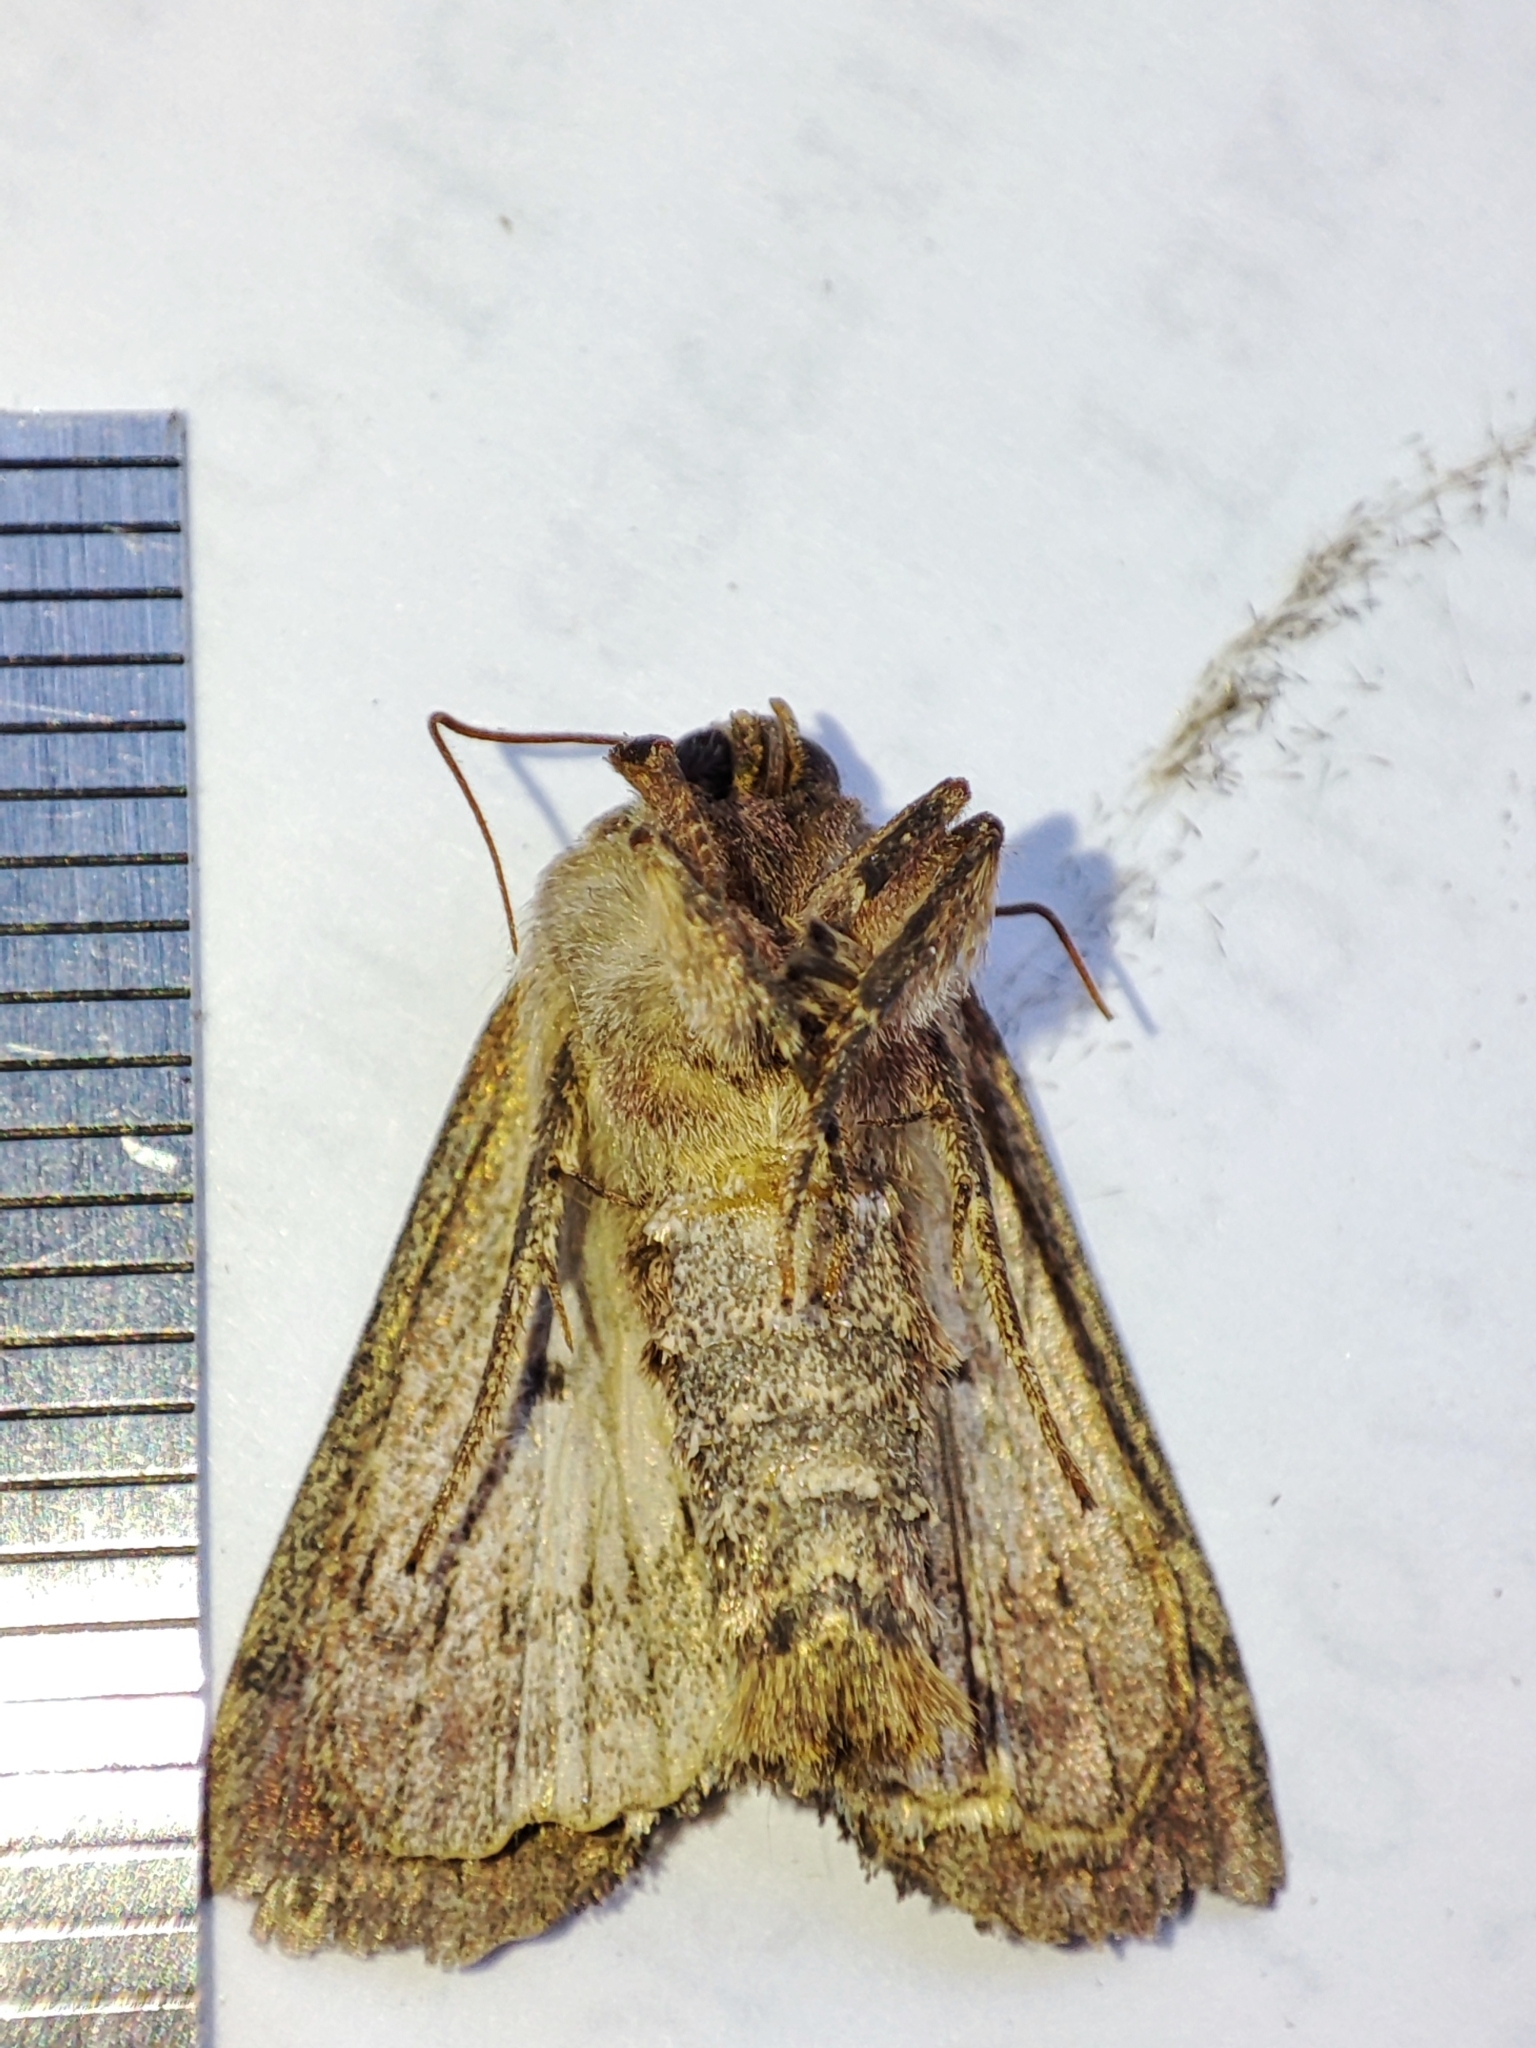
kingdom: Animalia
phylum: Arthropoda
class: Insecta
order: Lepidoptera
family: Noctuidae
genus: Lacanobia
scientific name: Lacanobia oleracea
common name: Bright-line brown-eye
